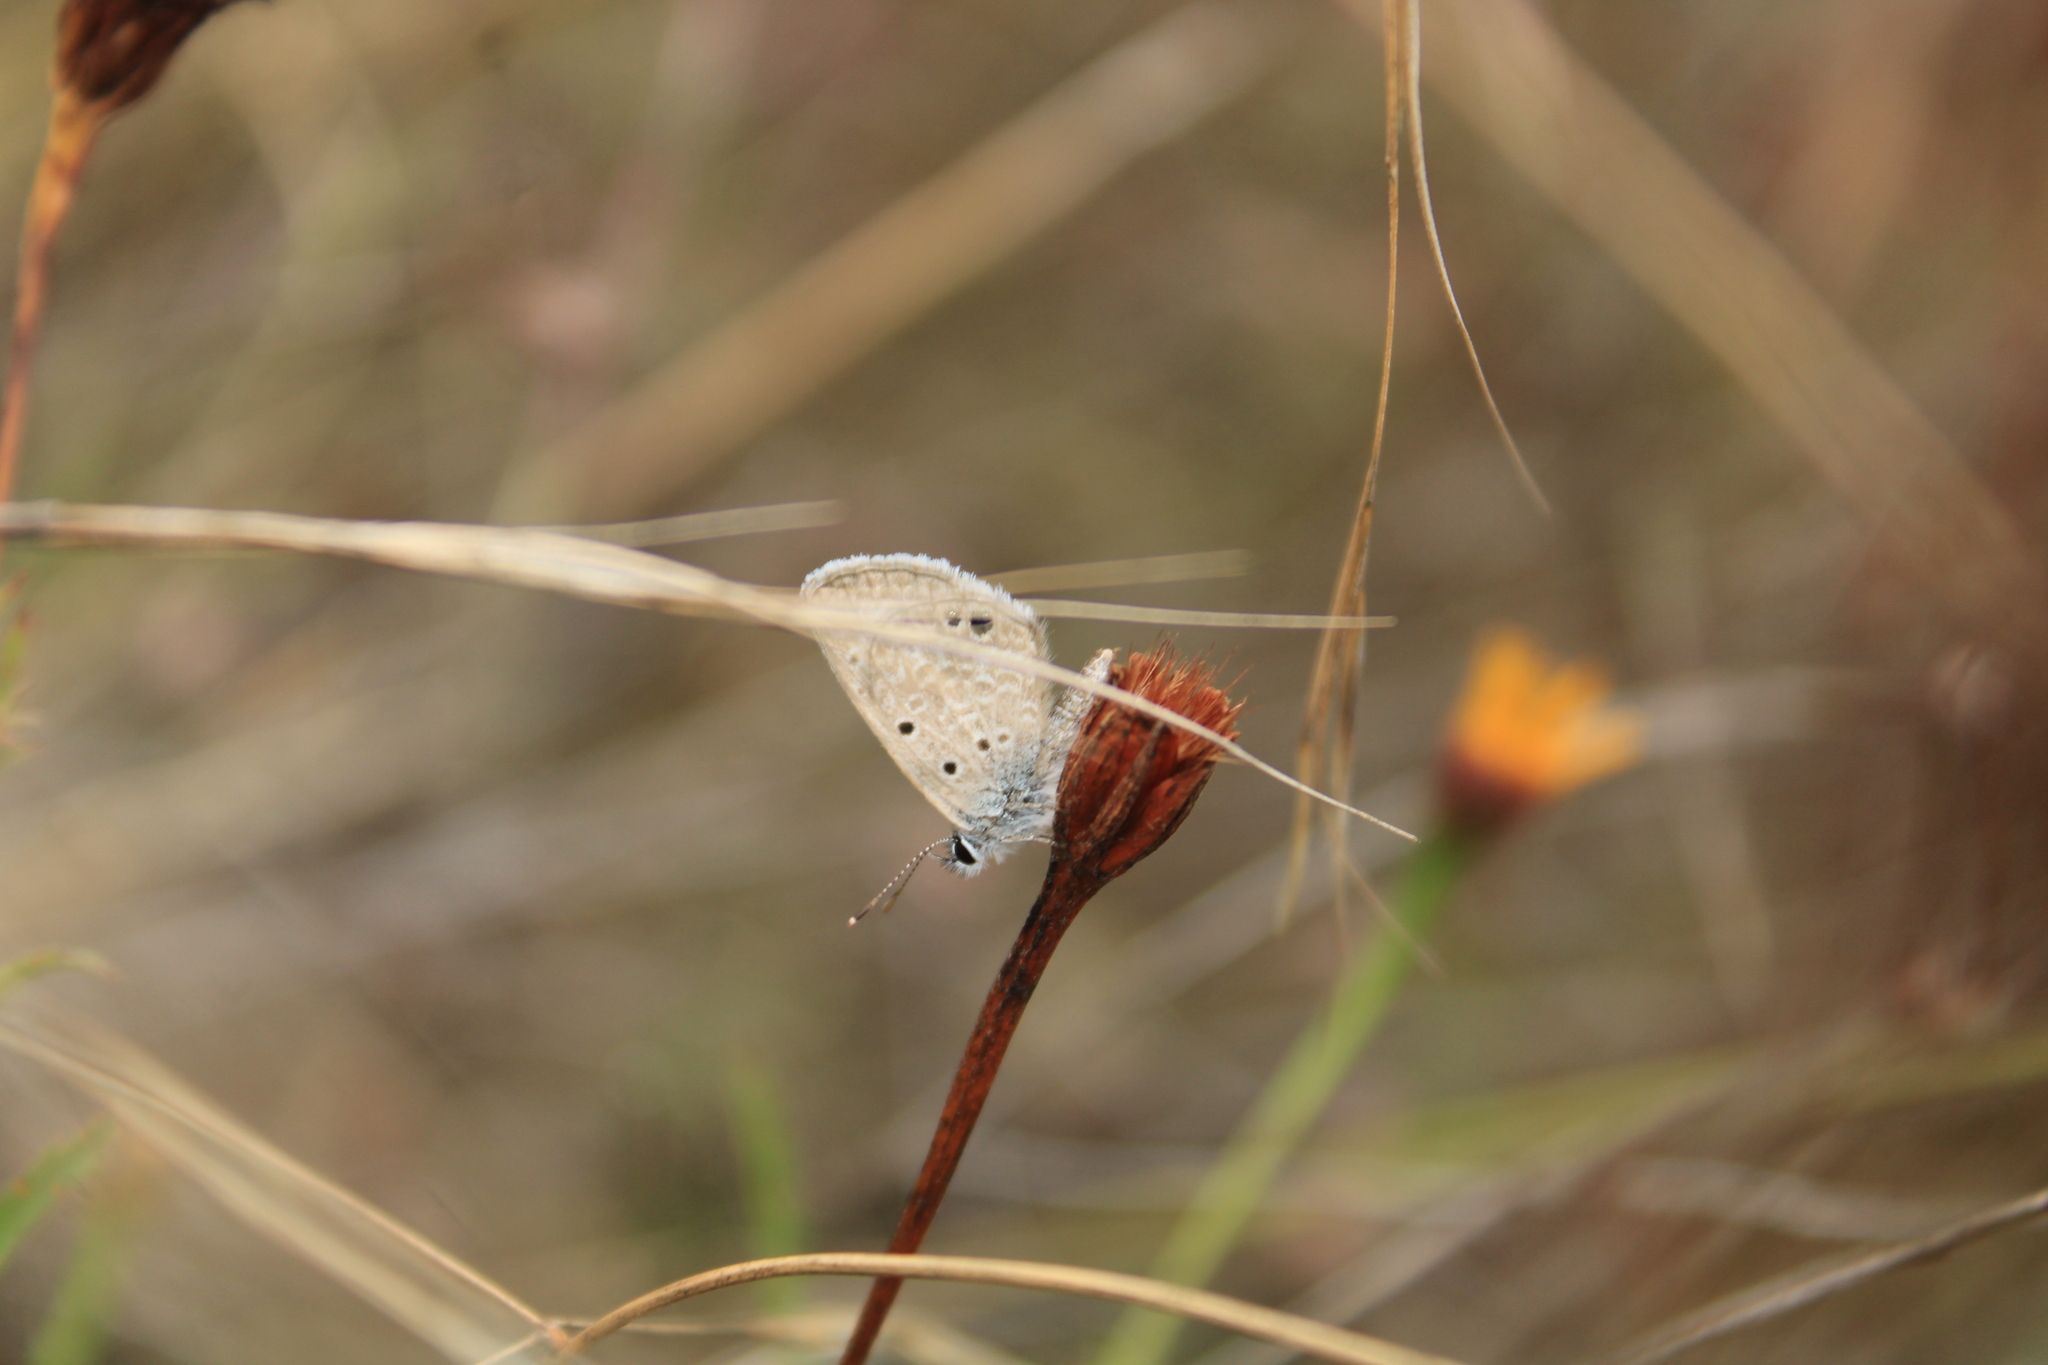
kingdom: Animalia
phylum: Arthropoda
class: Insecta
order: Lepidoptera
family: Lycaenidae
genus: Echinargus
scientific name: Echinargus isola
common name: Reakirt's blue
